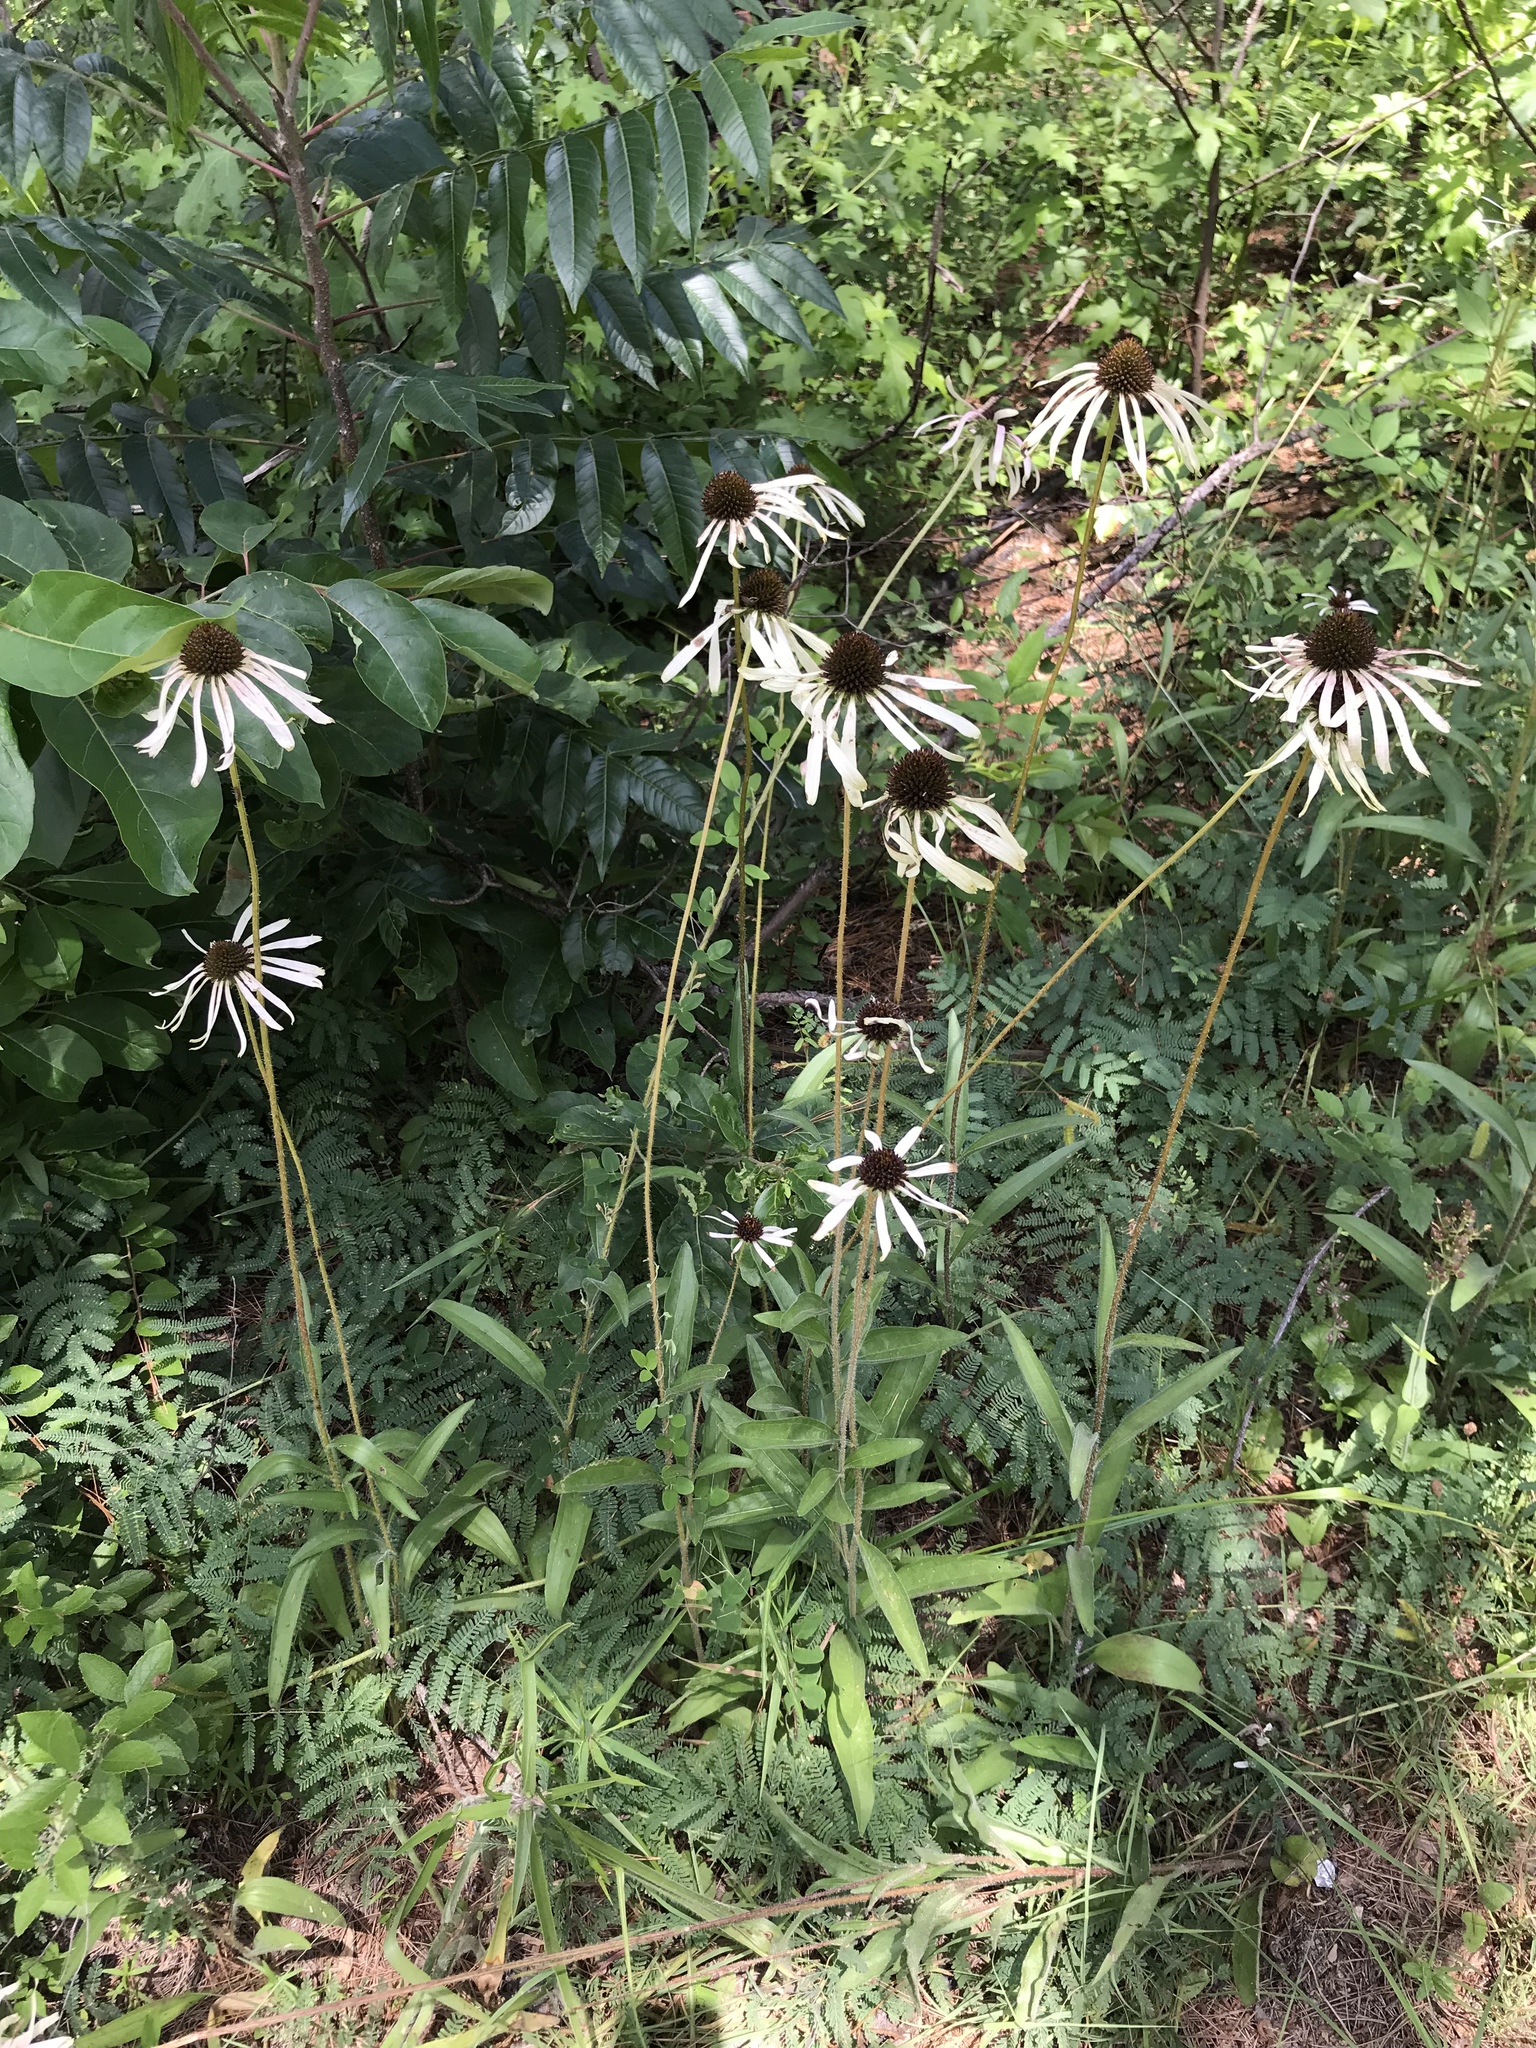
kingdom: Plantae
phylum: Tracheophyta
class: Magnoliopsida
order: Asterales
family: Asteraceae
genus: Echinacea
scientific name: Echinacea sanguinea
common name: Sanguine purple-coneflower
